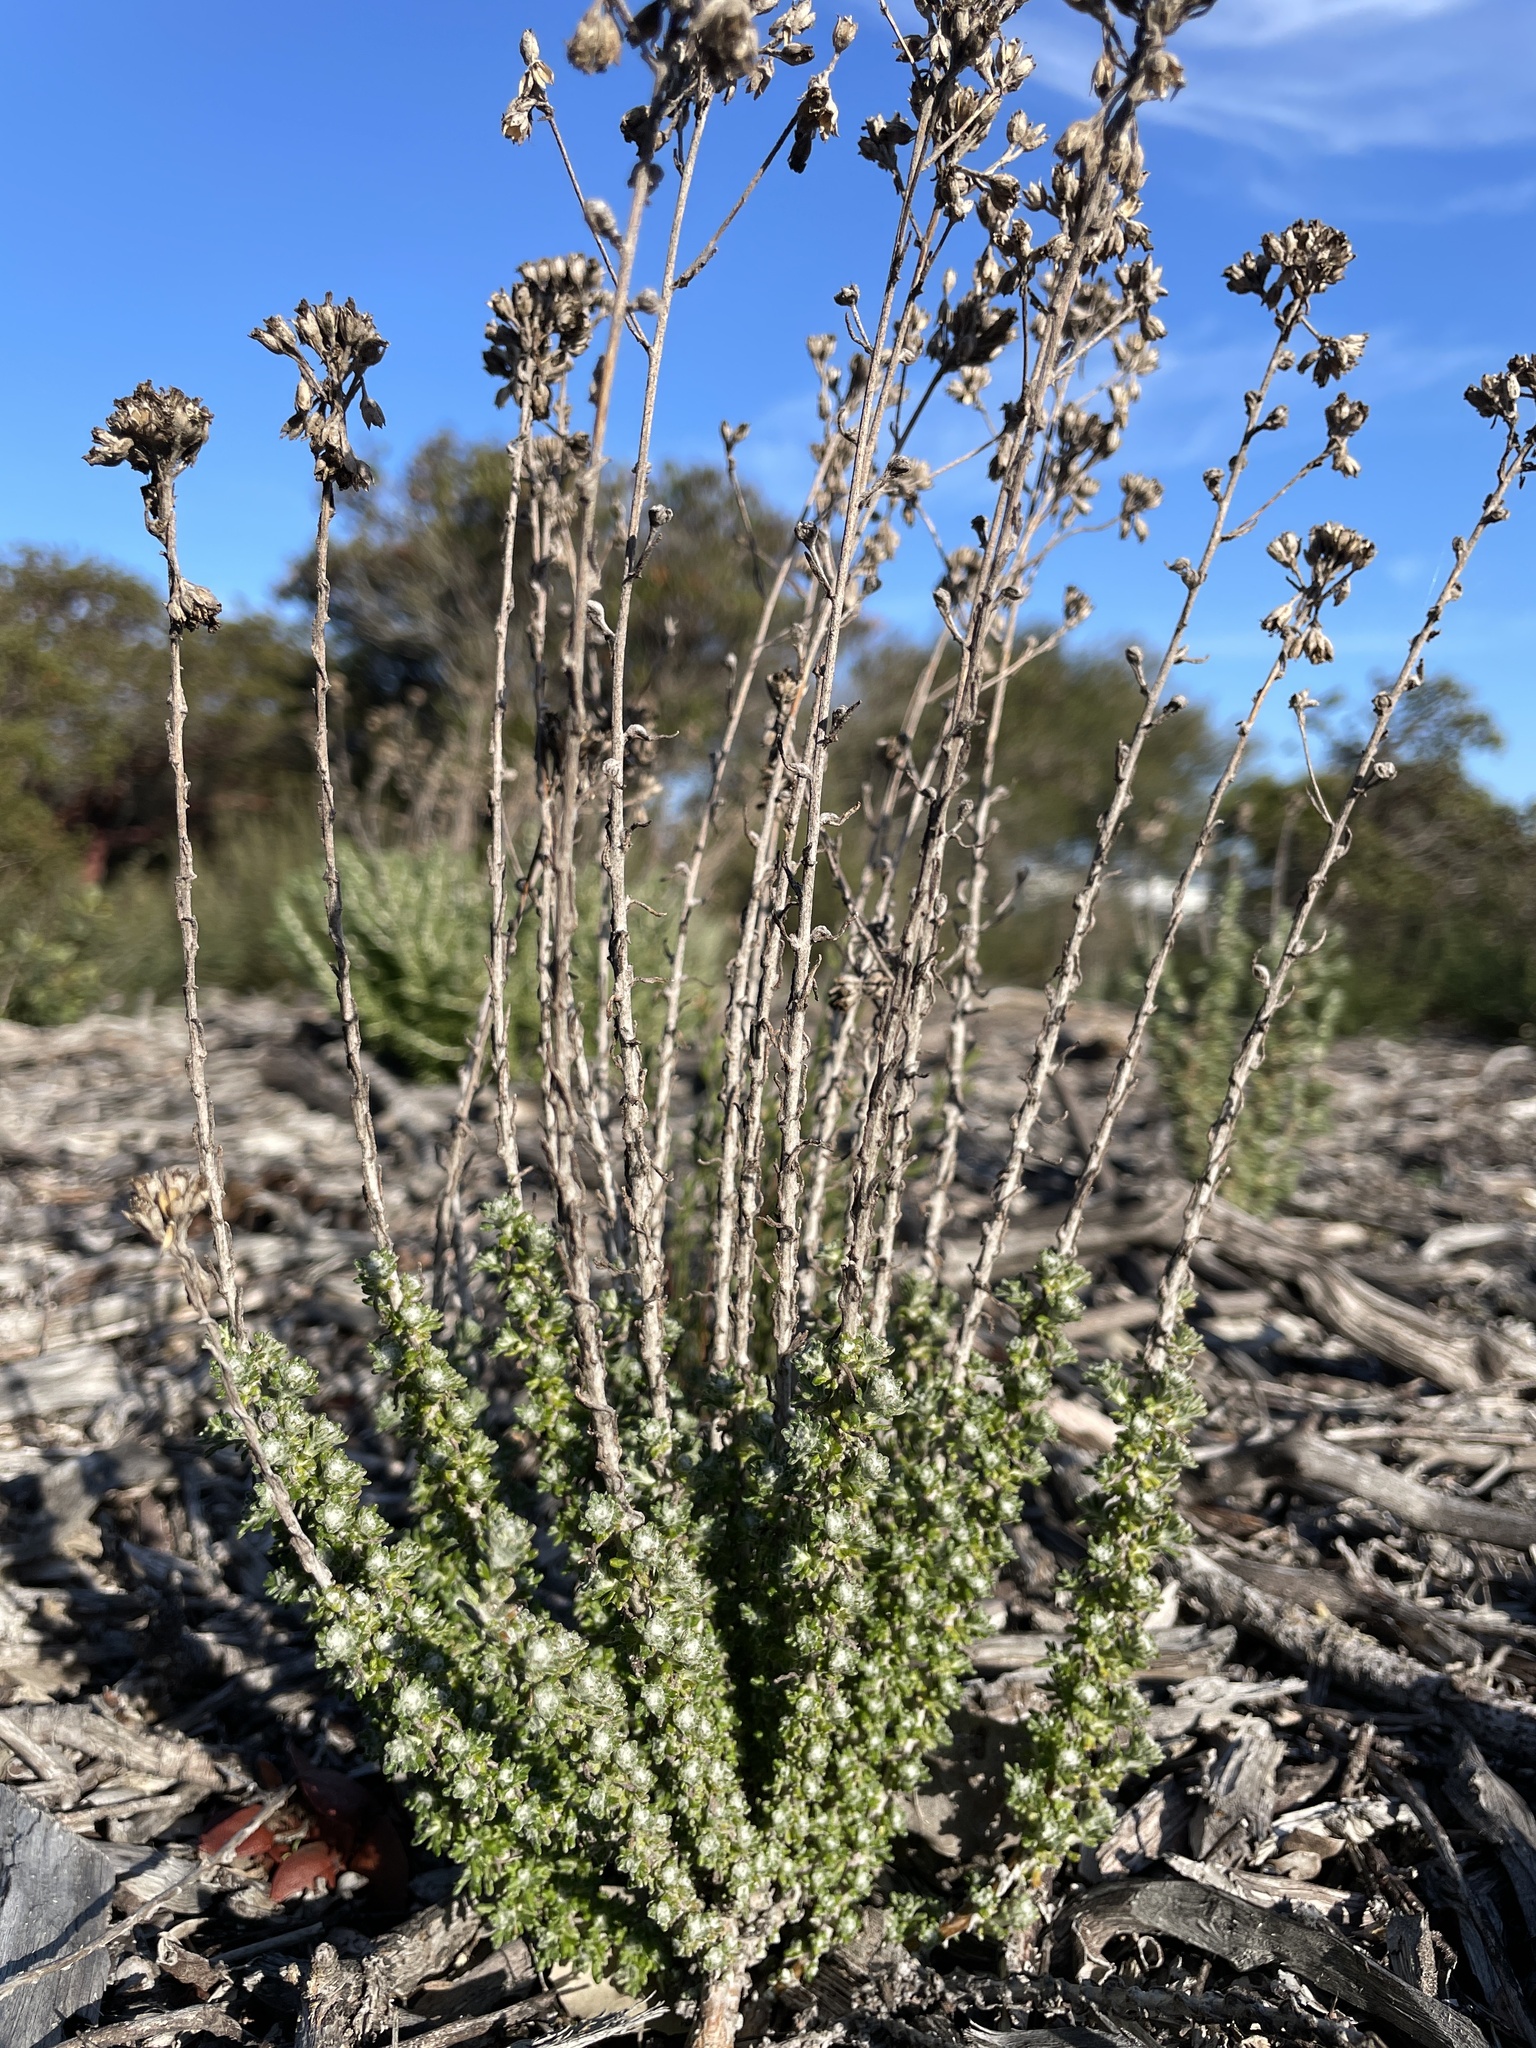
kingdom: Plantae
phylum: Tracheophyta
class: Magnoliopsida
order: Asterales
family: Asteraceae
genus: Eriophyllum
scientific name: Eriophyllum confertiflorum
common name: Golden-yarrow
